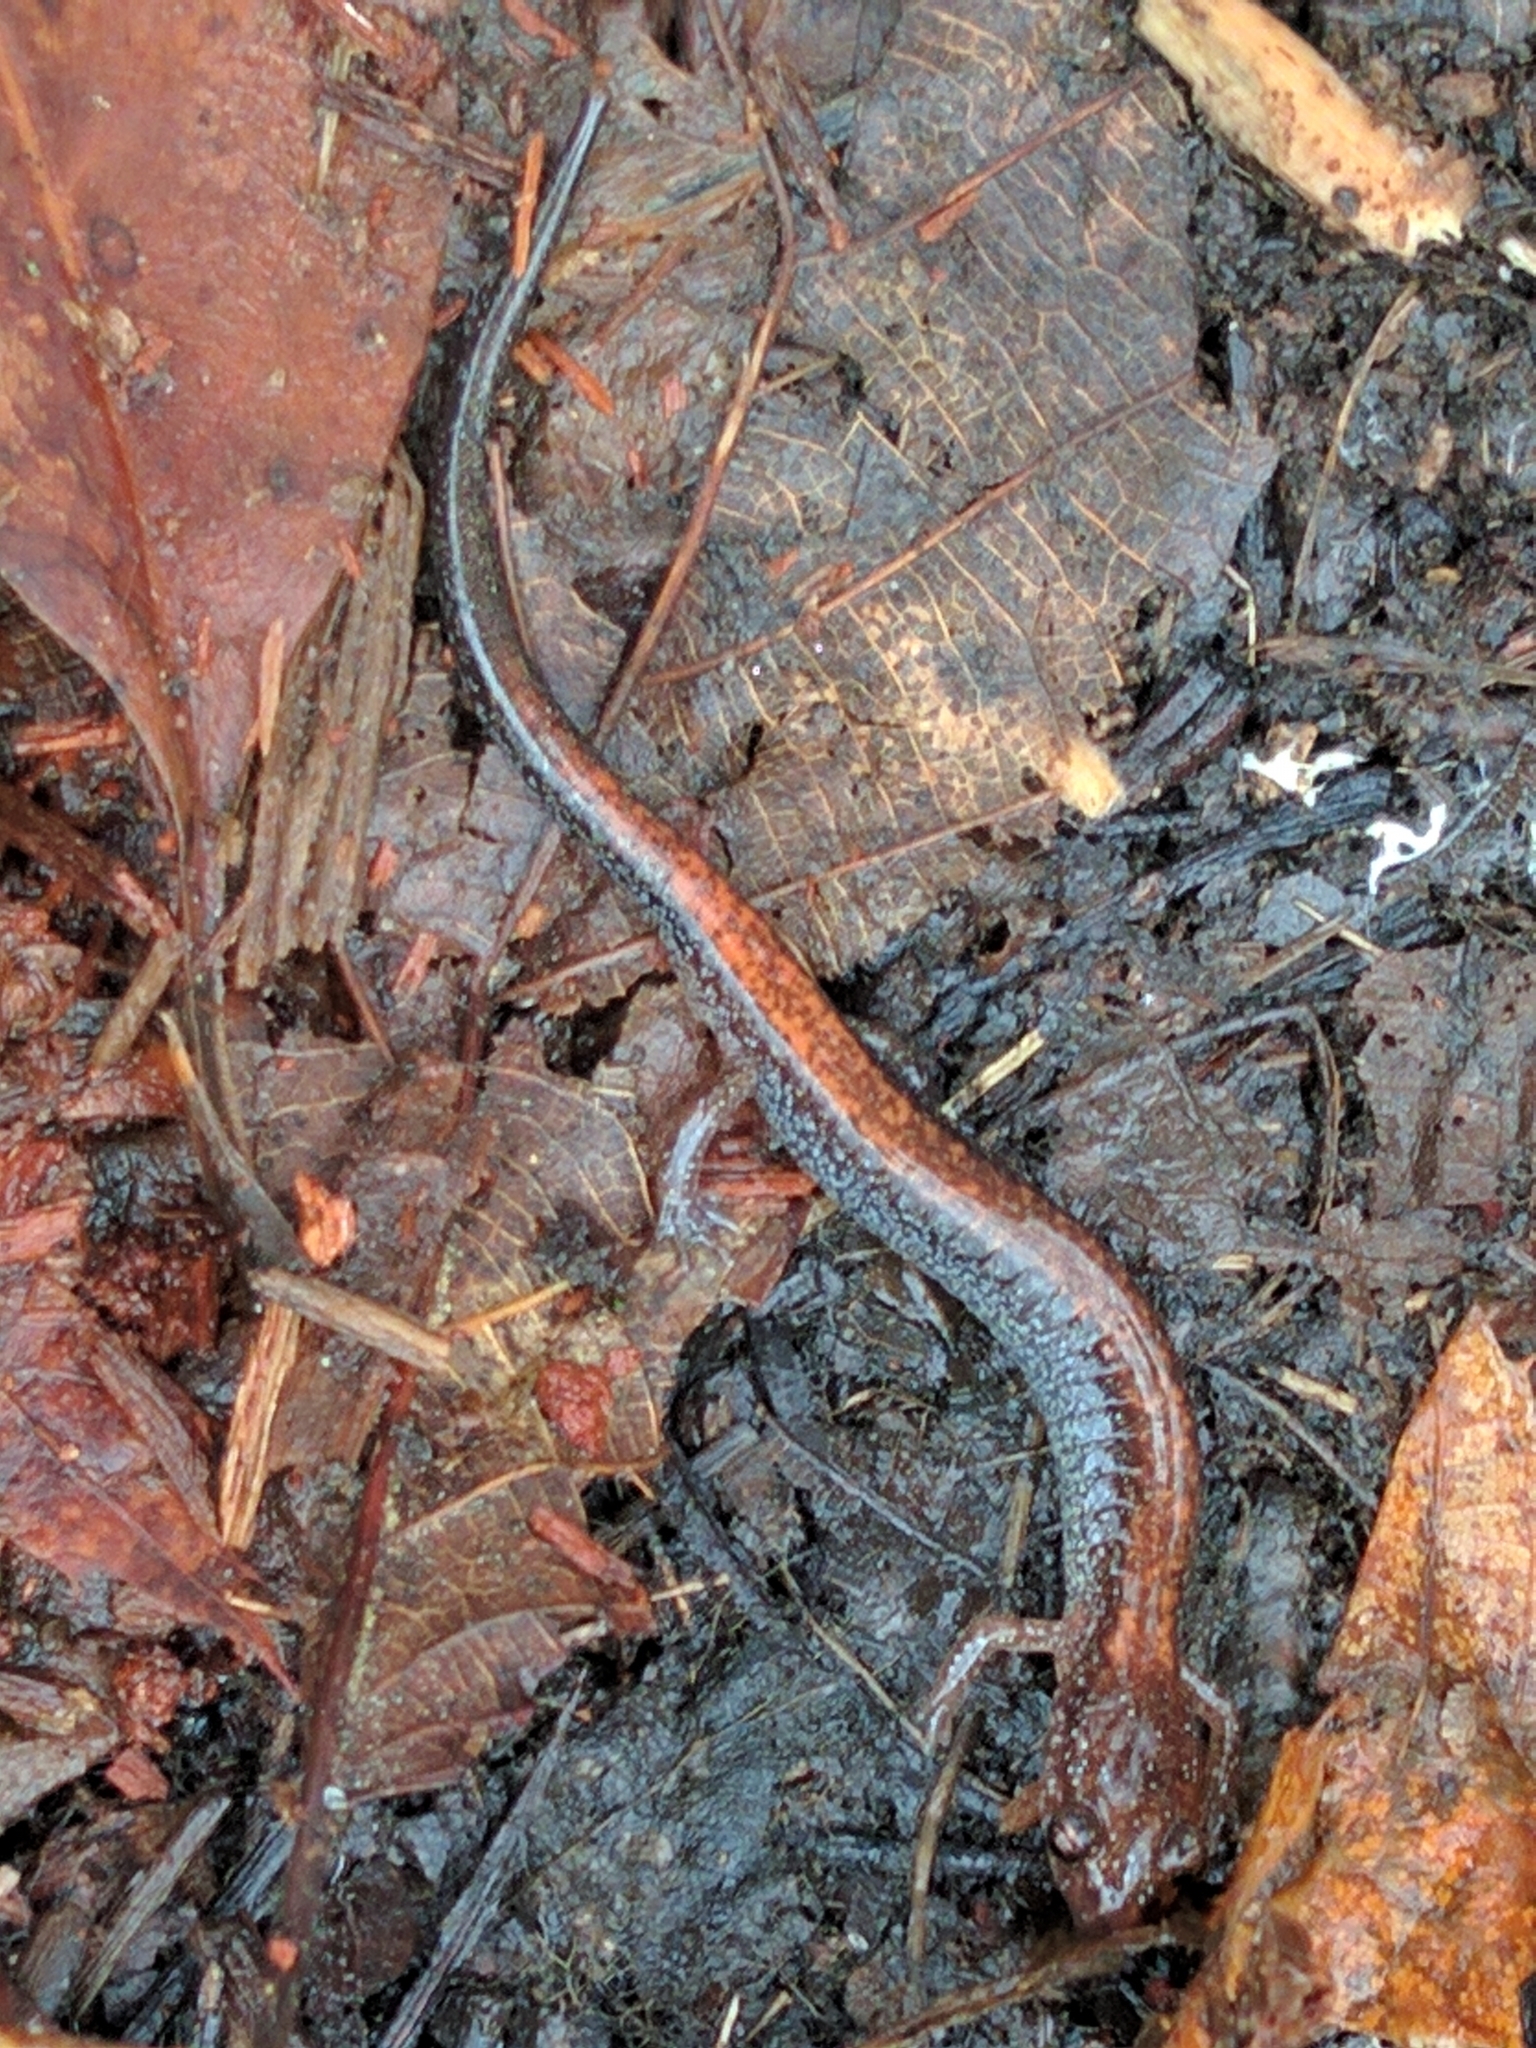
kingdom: Animalia
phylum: Chordata
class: Amphibia
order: Caudata
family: Plethodontidae
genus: Plethodon
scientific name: Plethodon cinereus
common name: Redback salamander
